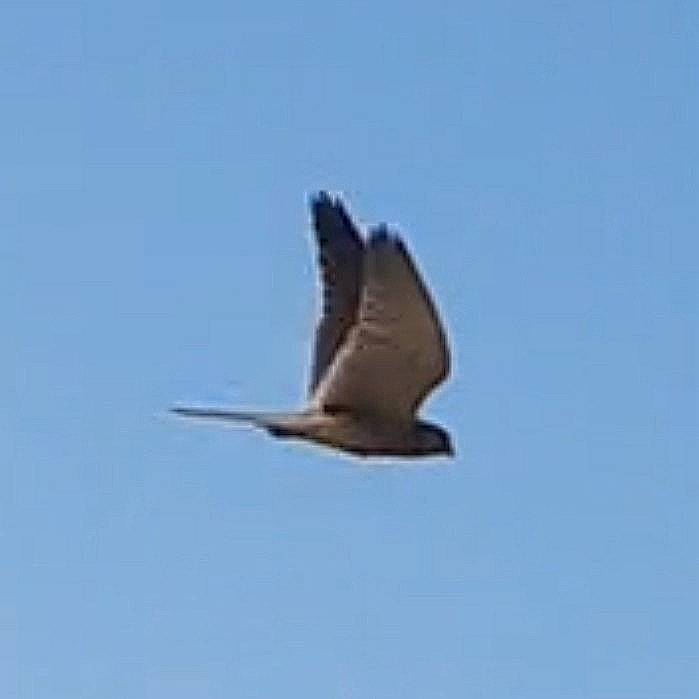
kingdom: Animalia
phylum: Chordata
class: Aves
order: Falconiformes
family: Falconidae
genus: Falco
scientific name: Falco tinnunculus
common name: Common kestrel
